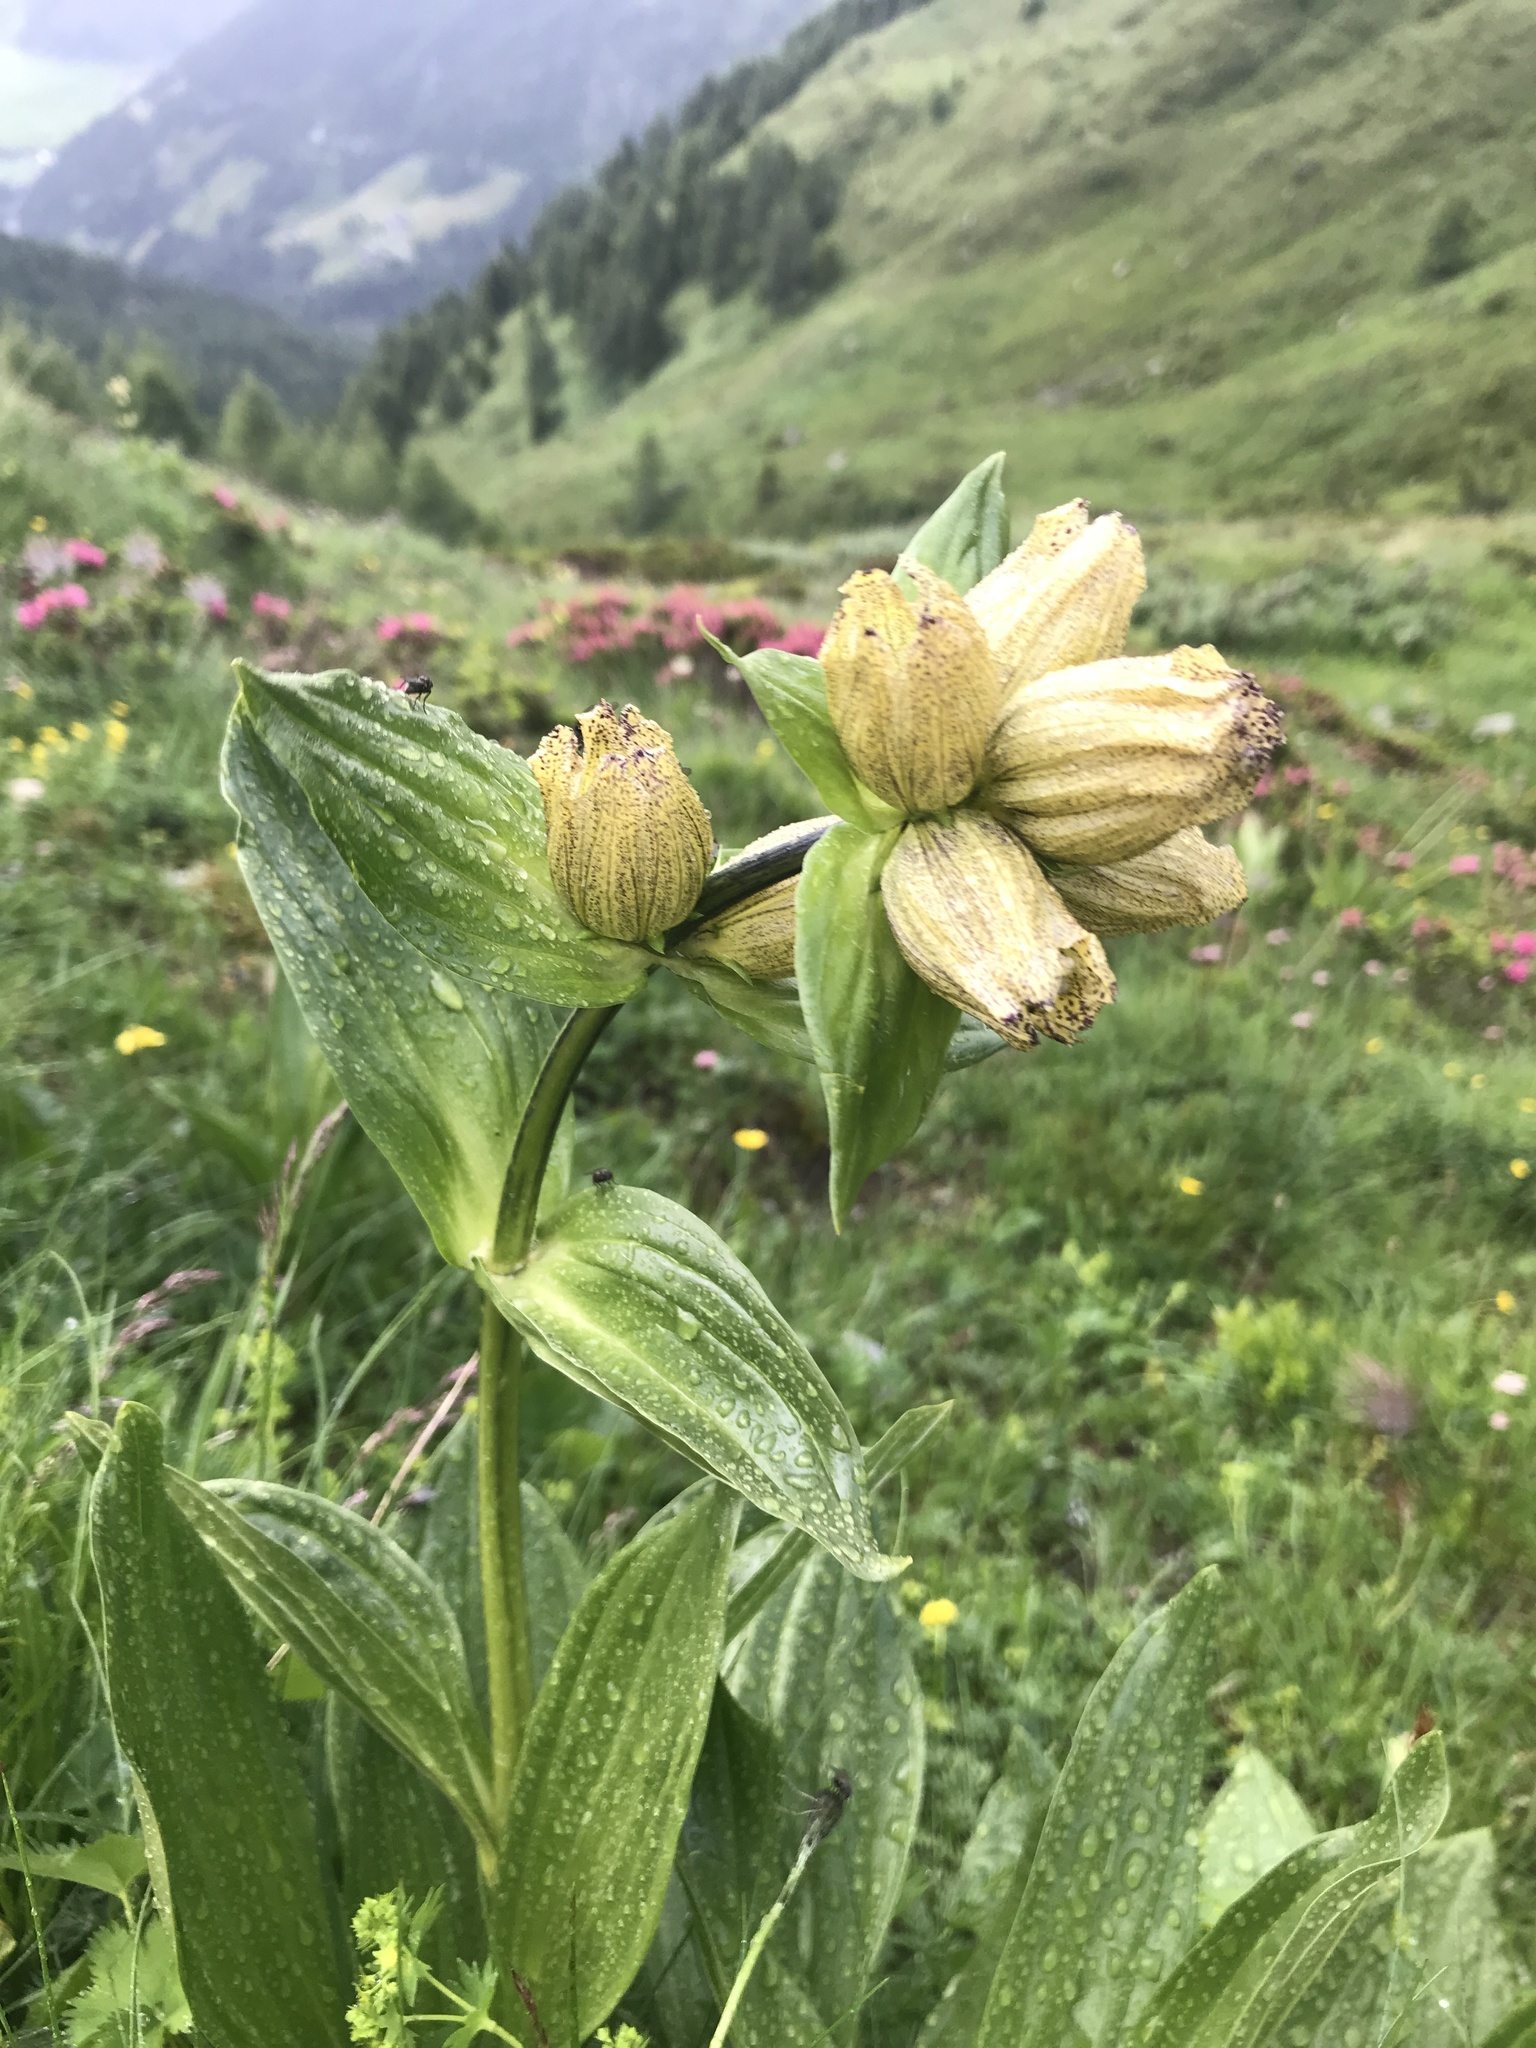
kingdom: Plantae
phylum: Tracheophyta
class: Magnoliopsida
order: Gentianales
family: Gentianaceae
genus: Gentiana
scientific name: Gentiana punctata
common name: Spotted gentian
